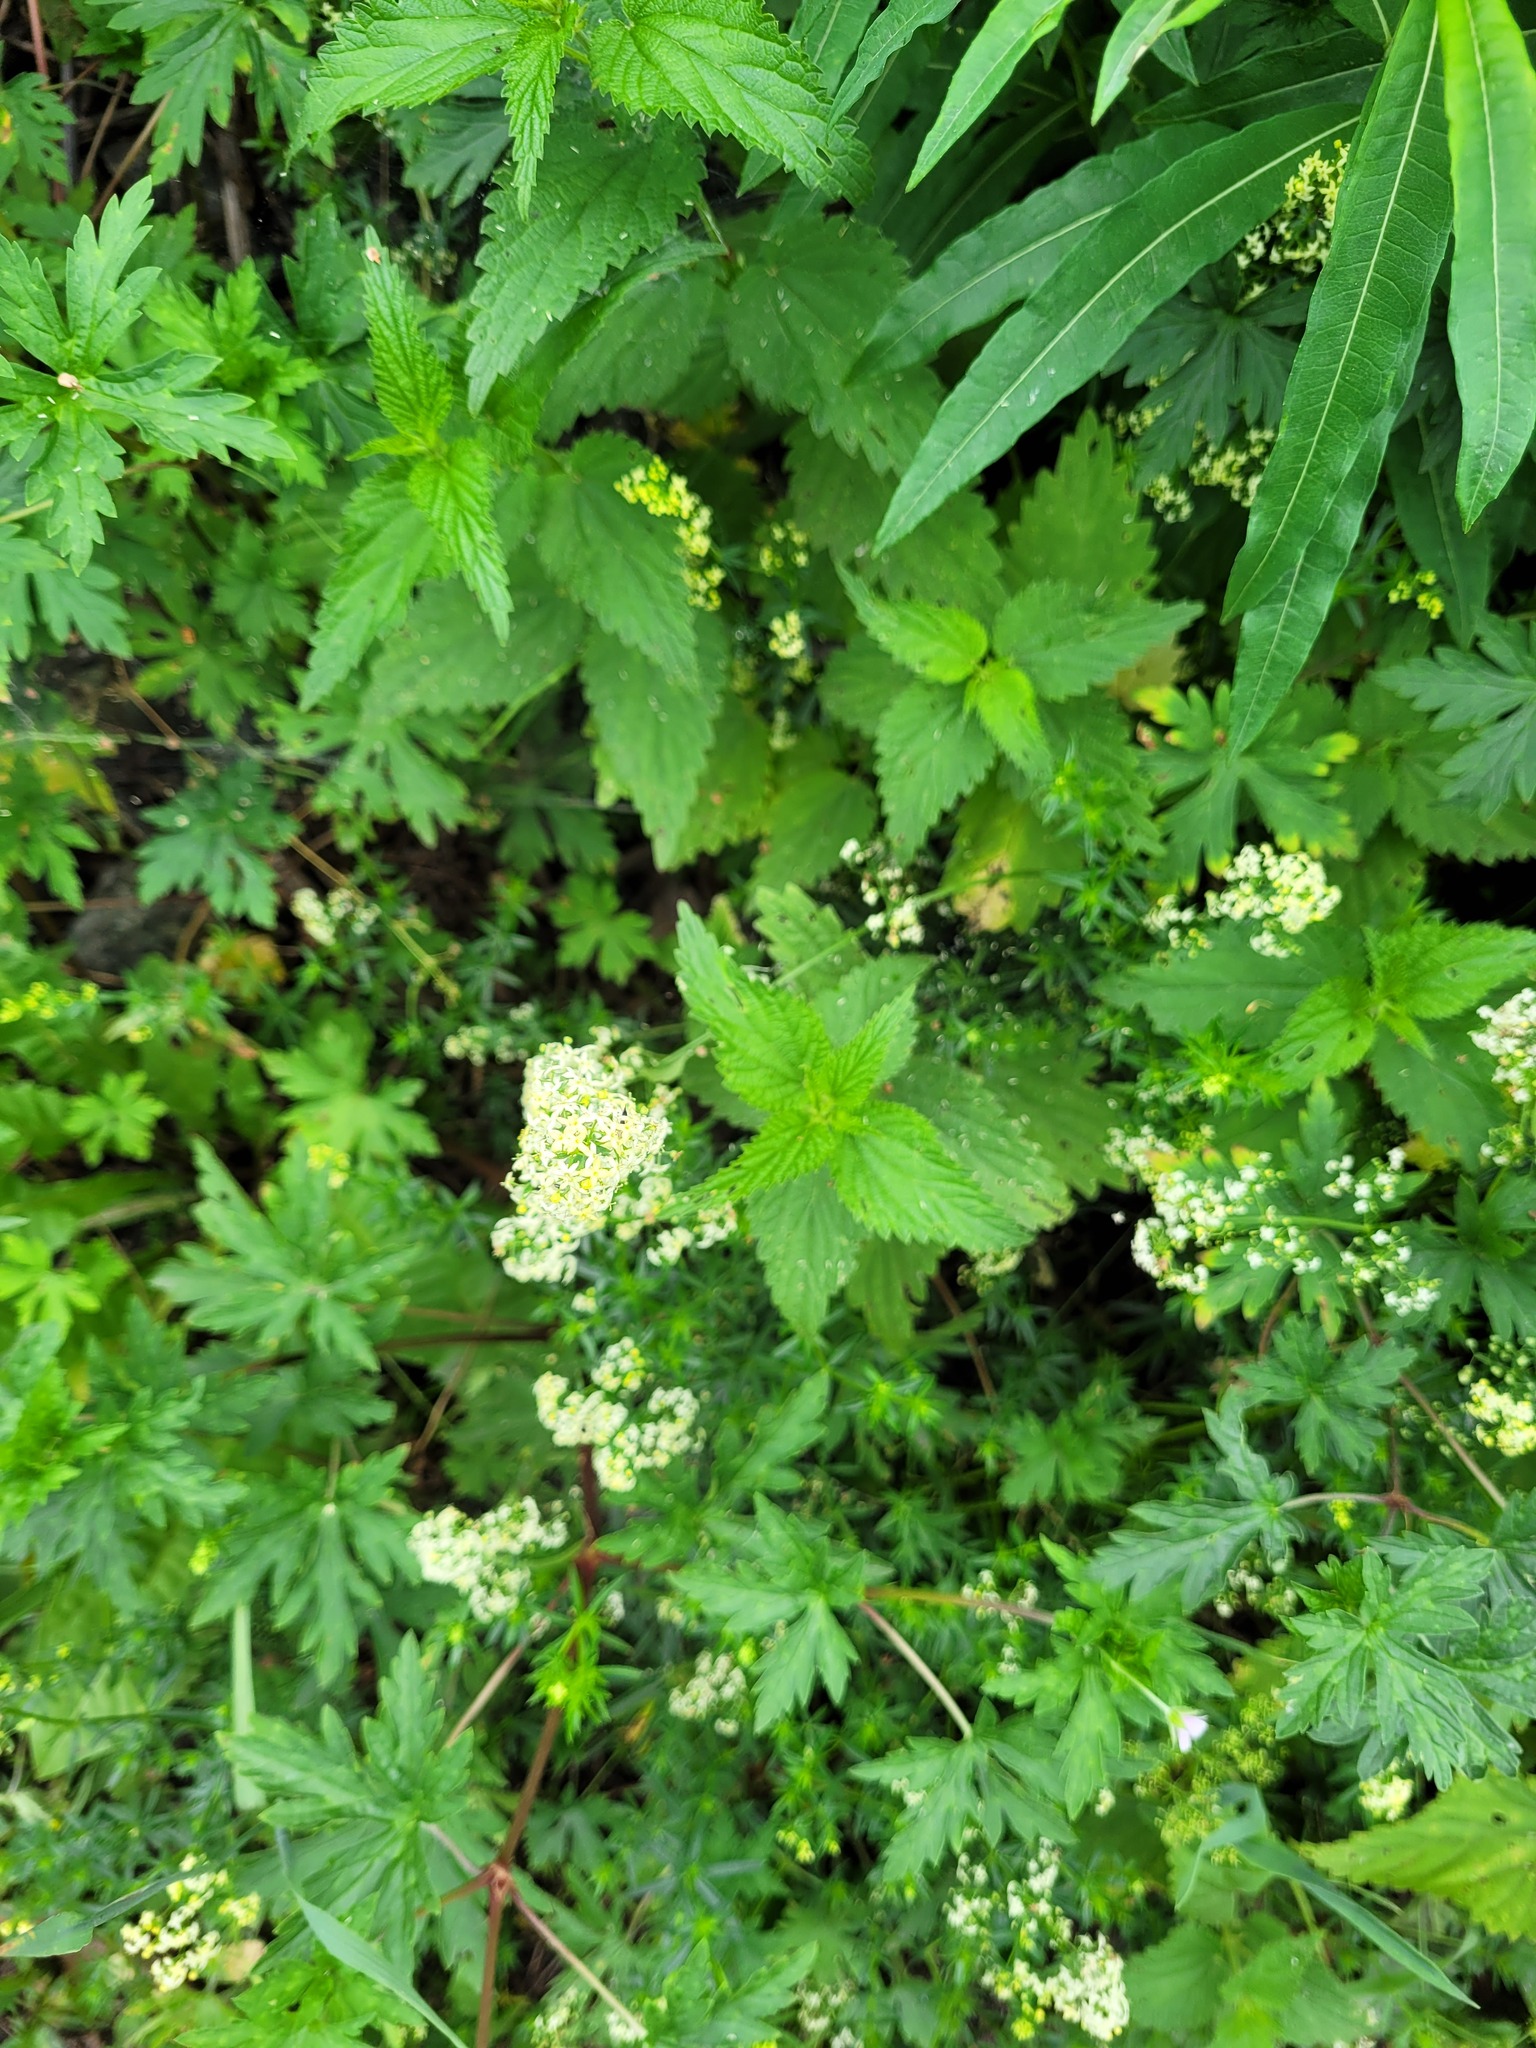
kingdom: Plantae
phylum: Tracheophyta
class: Magnoliopsida
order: Gentianales
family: Rubiaceae
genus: Galium
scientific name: Galium pomeranicum
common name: Bedstraw
